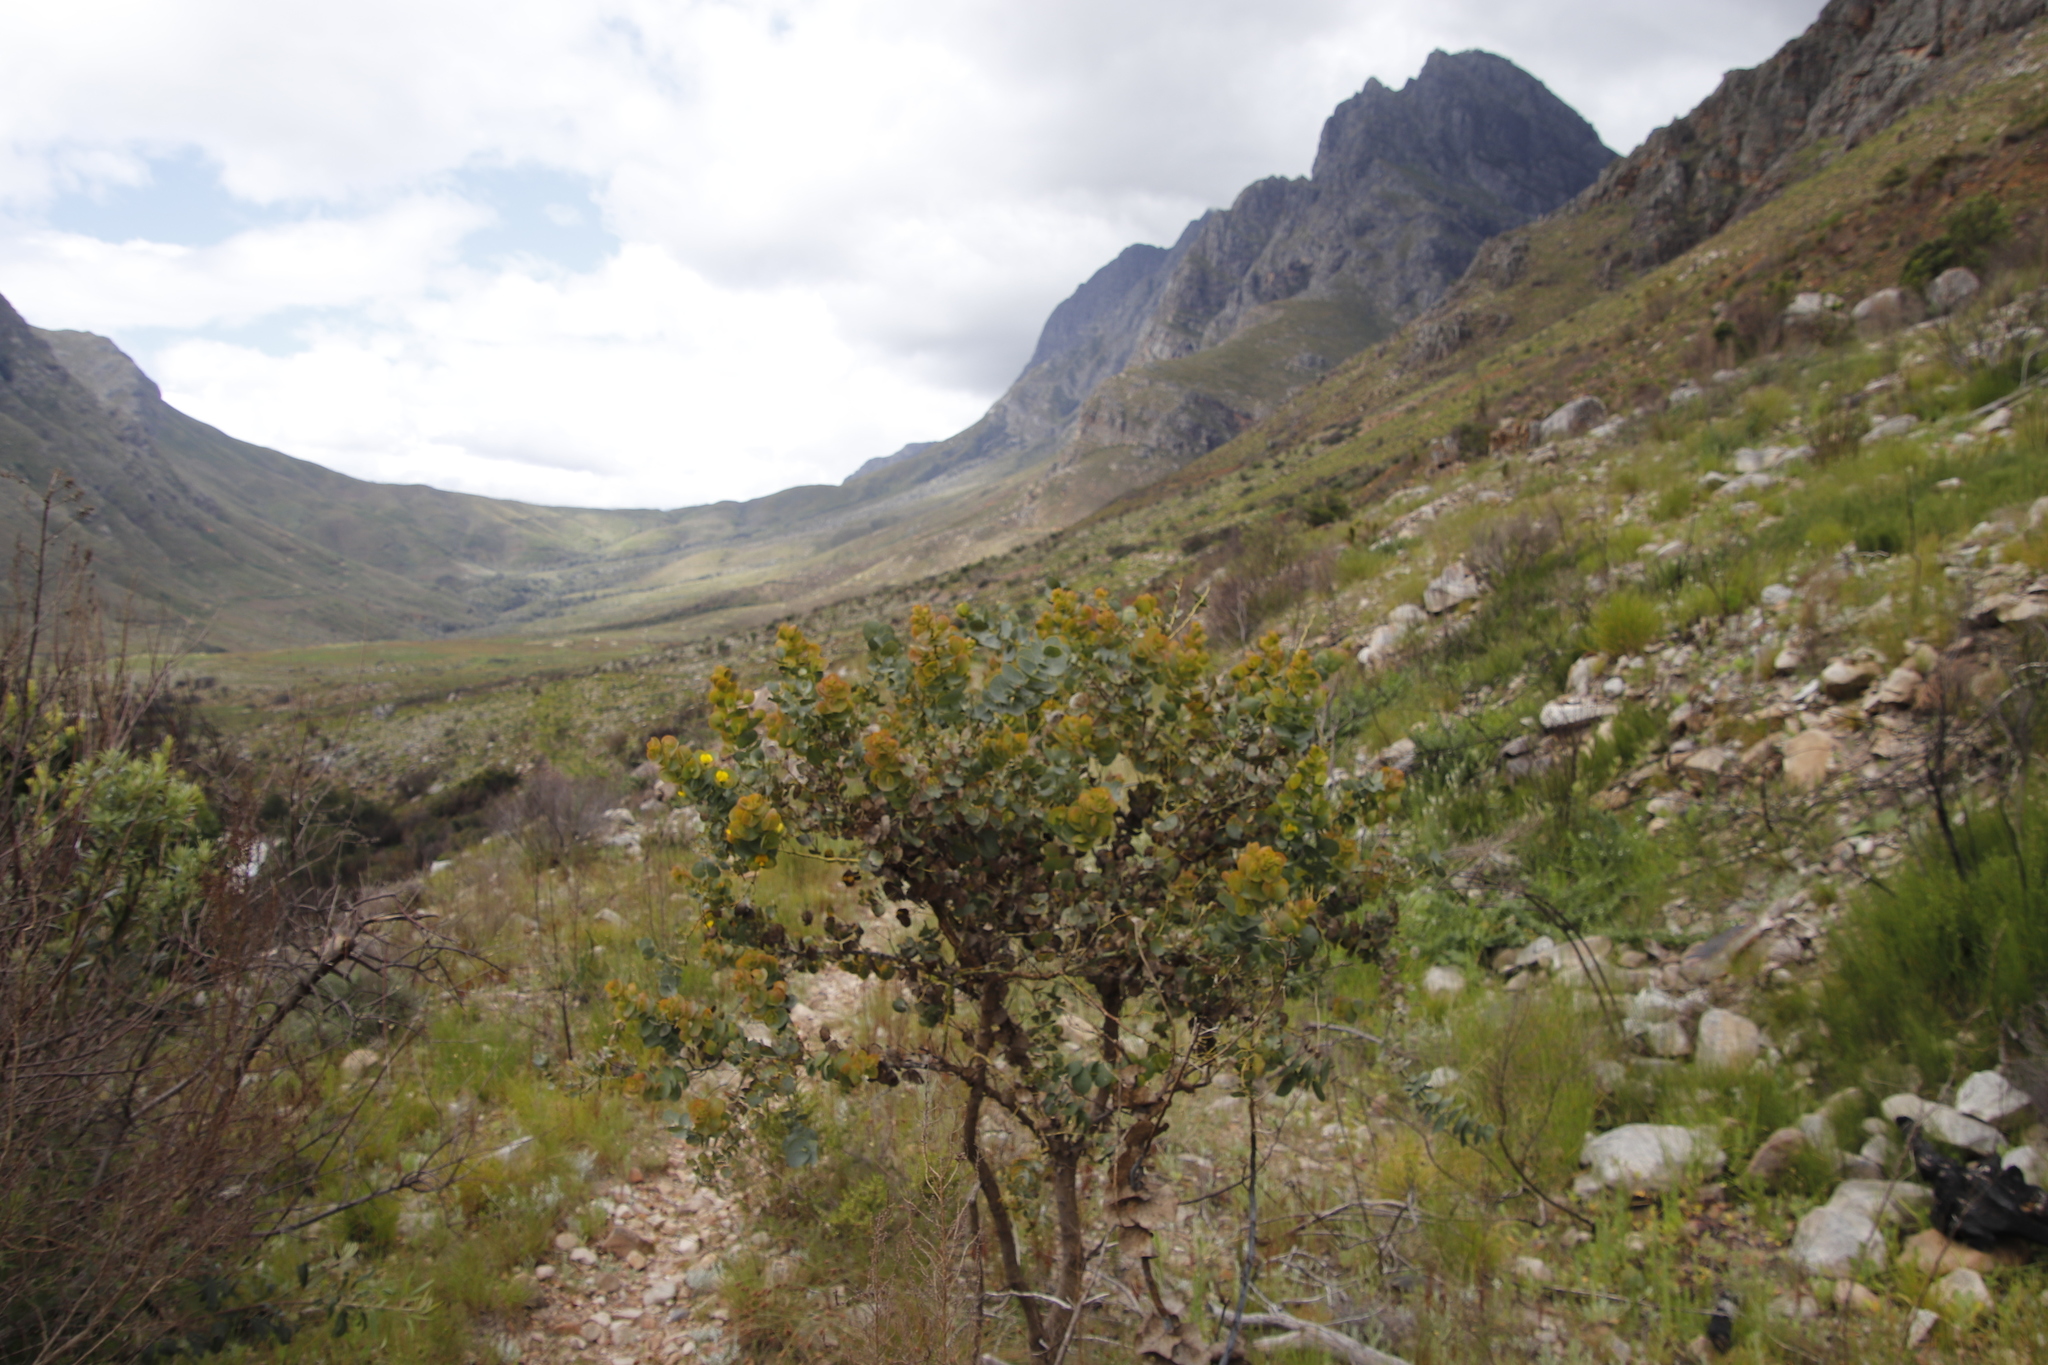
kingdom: Plantae
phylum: Tracheophyta
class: Magnoliopsida
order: Fabales
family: Fabaceae
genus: Rafnia
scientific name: Rafnia amplexicaulis
